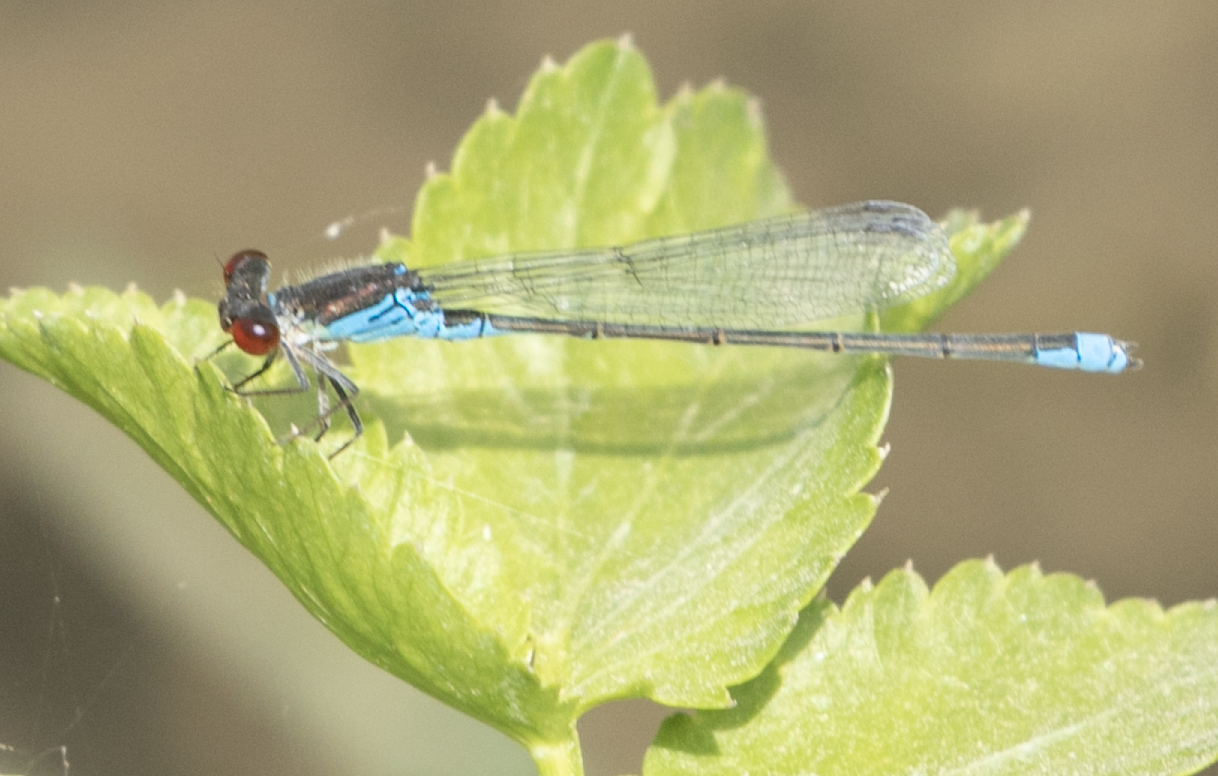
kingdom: Animalia
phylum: Arthropoda
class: Insecta
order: Odonata
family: Coenagrionidae
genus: Erythromma
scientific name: Erythromma viridulum
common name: Small red-eyed damselfly
